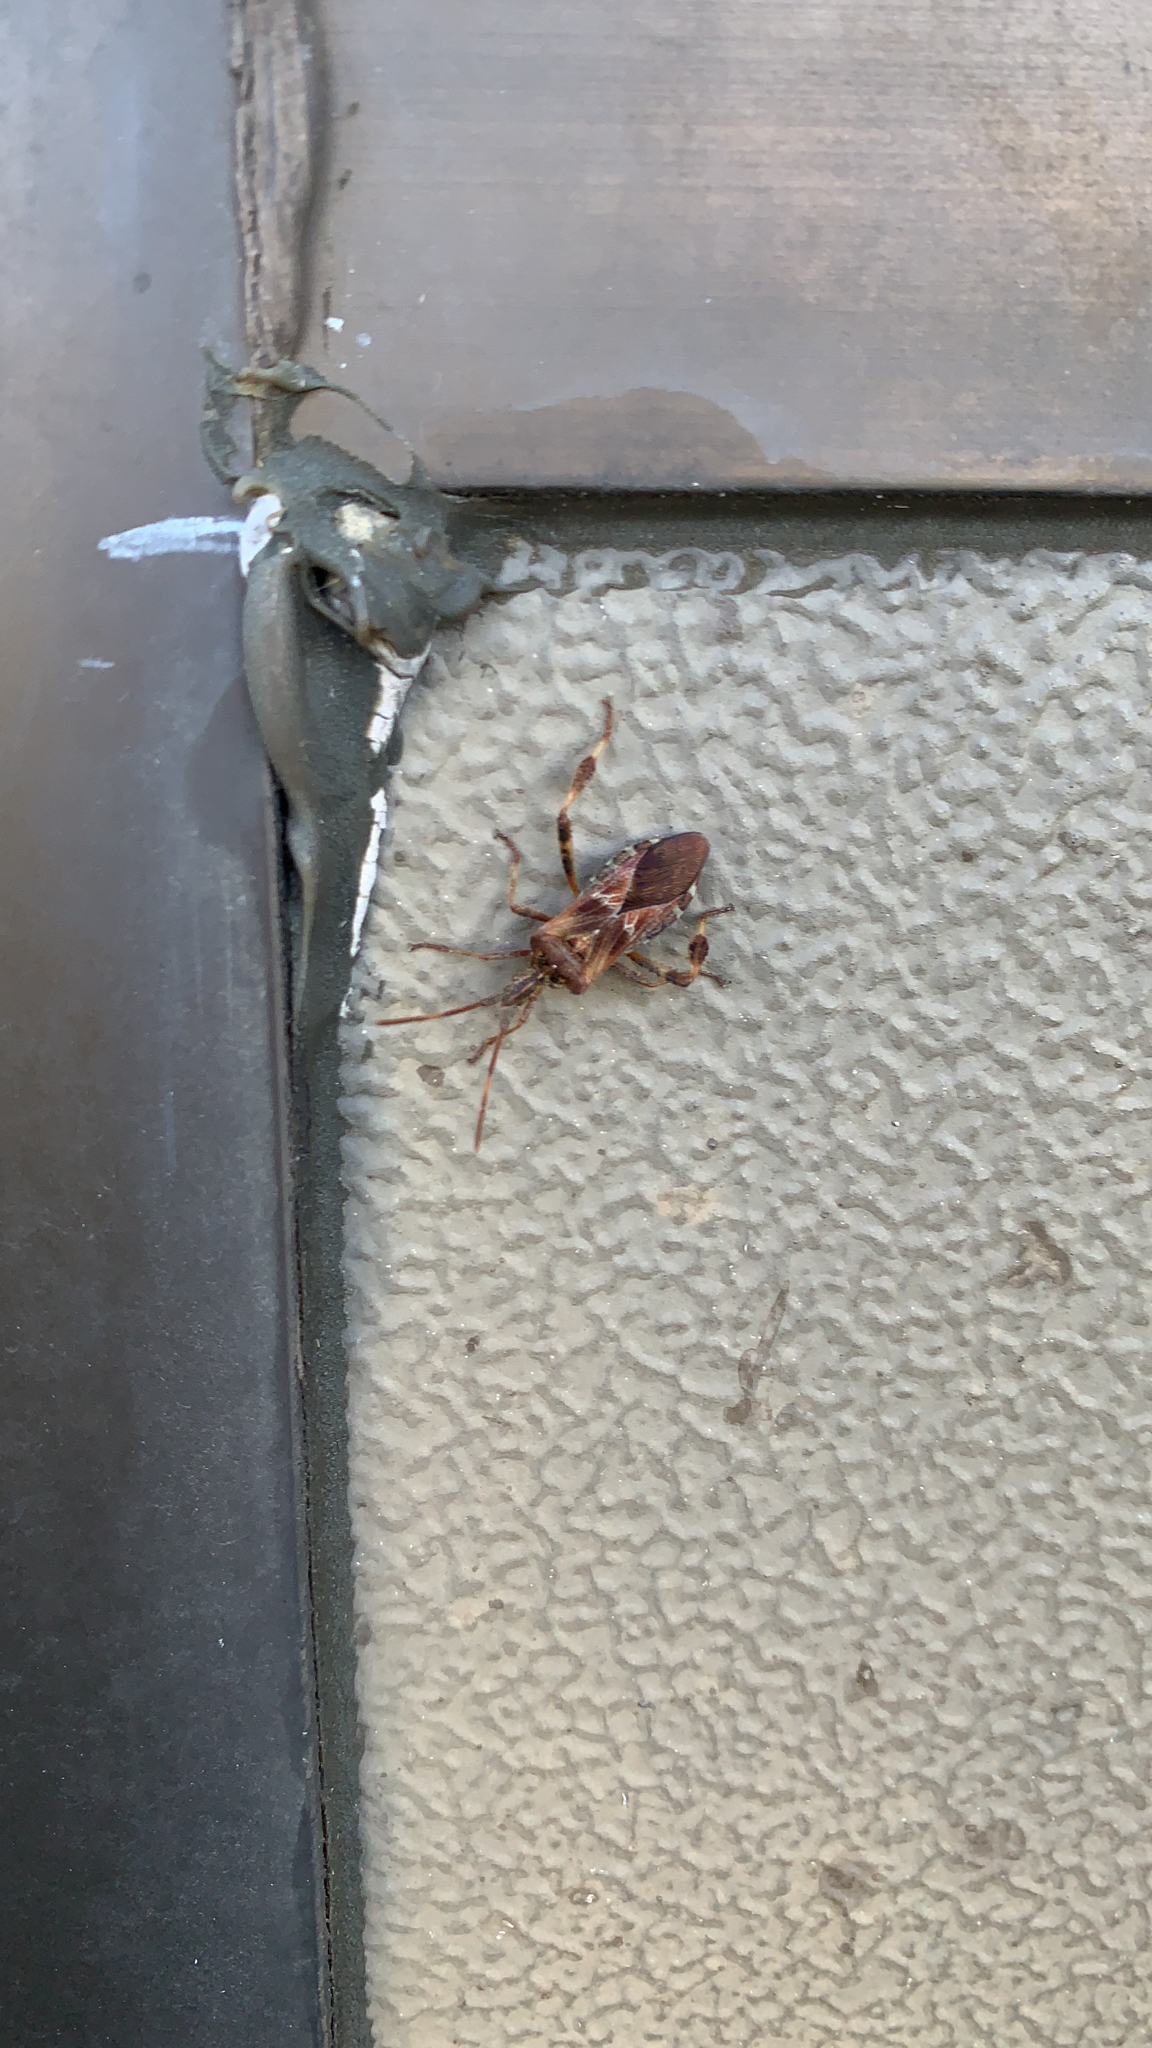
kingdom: Animalia
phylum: Arthropoda
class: Insecta
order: Hemiptera
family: Coreidae
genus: Leptoglossus
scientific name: Leptoglossus occidentalis
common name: Western conifer-seed bug
